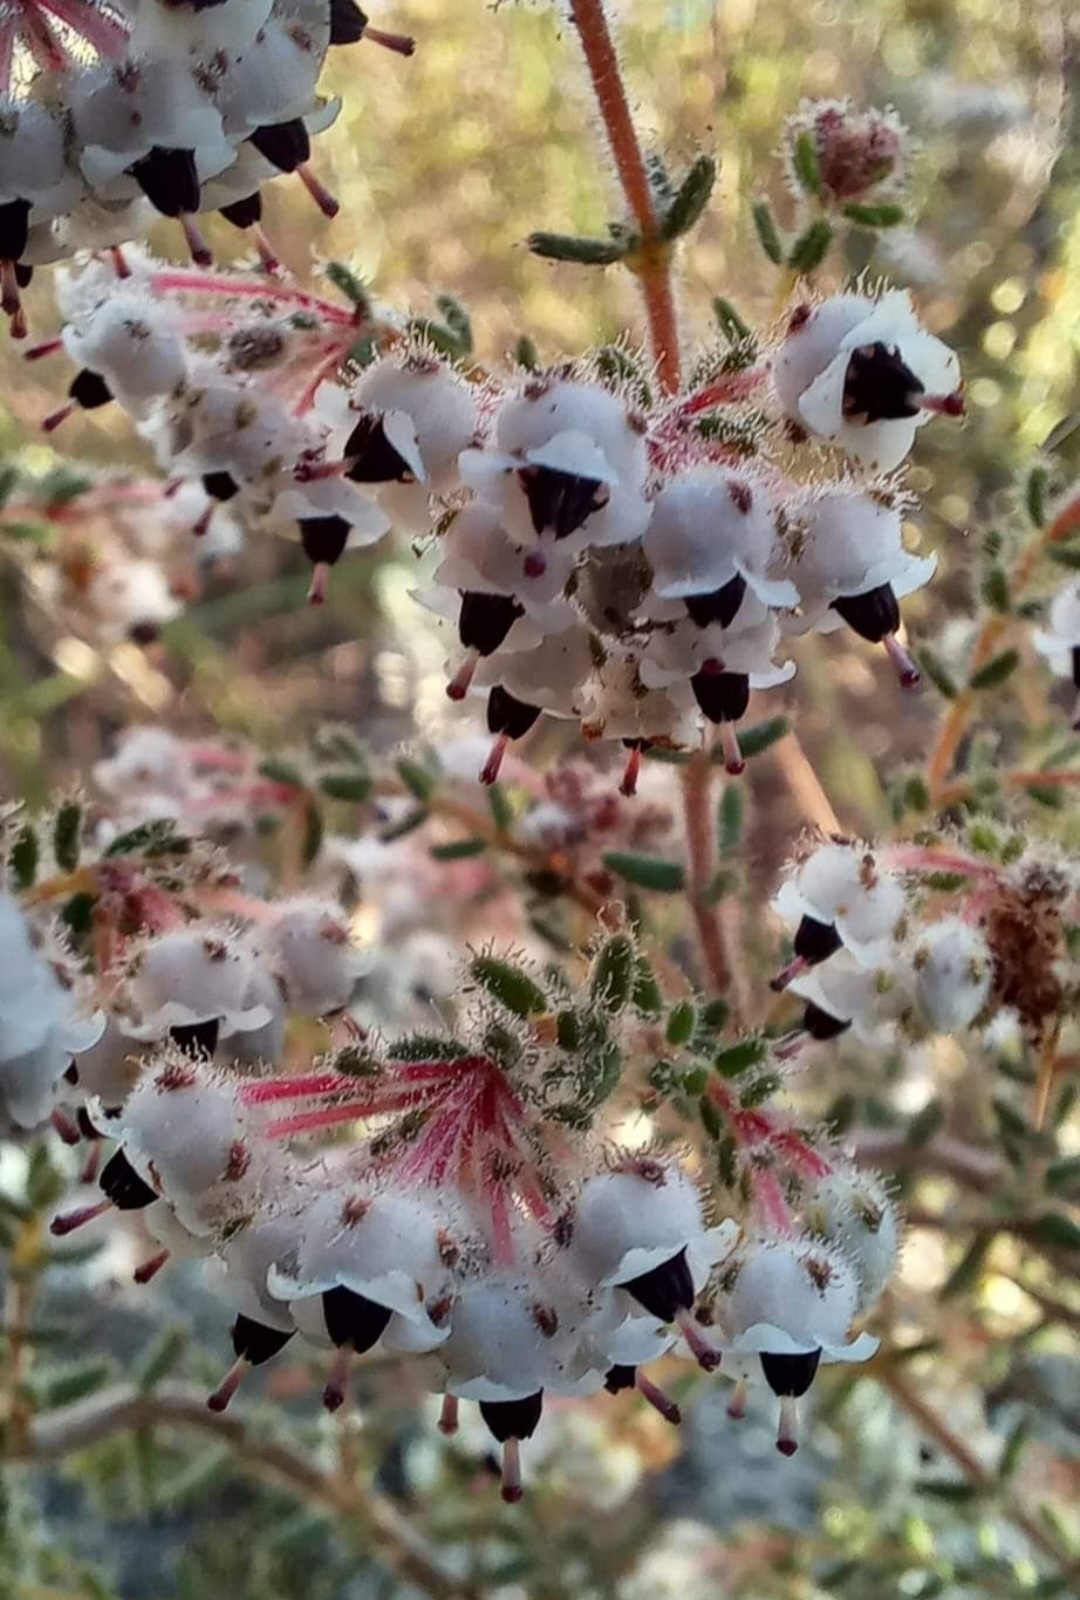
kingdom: Plantae
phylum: Tracheophyta
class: Magnoliopsida
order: Ericales
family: Ericaceae
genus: Erica
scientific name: Erica perlata
